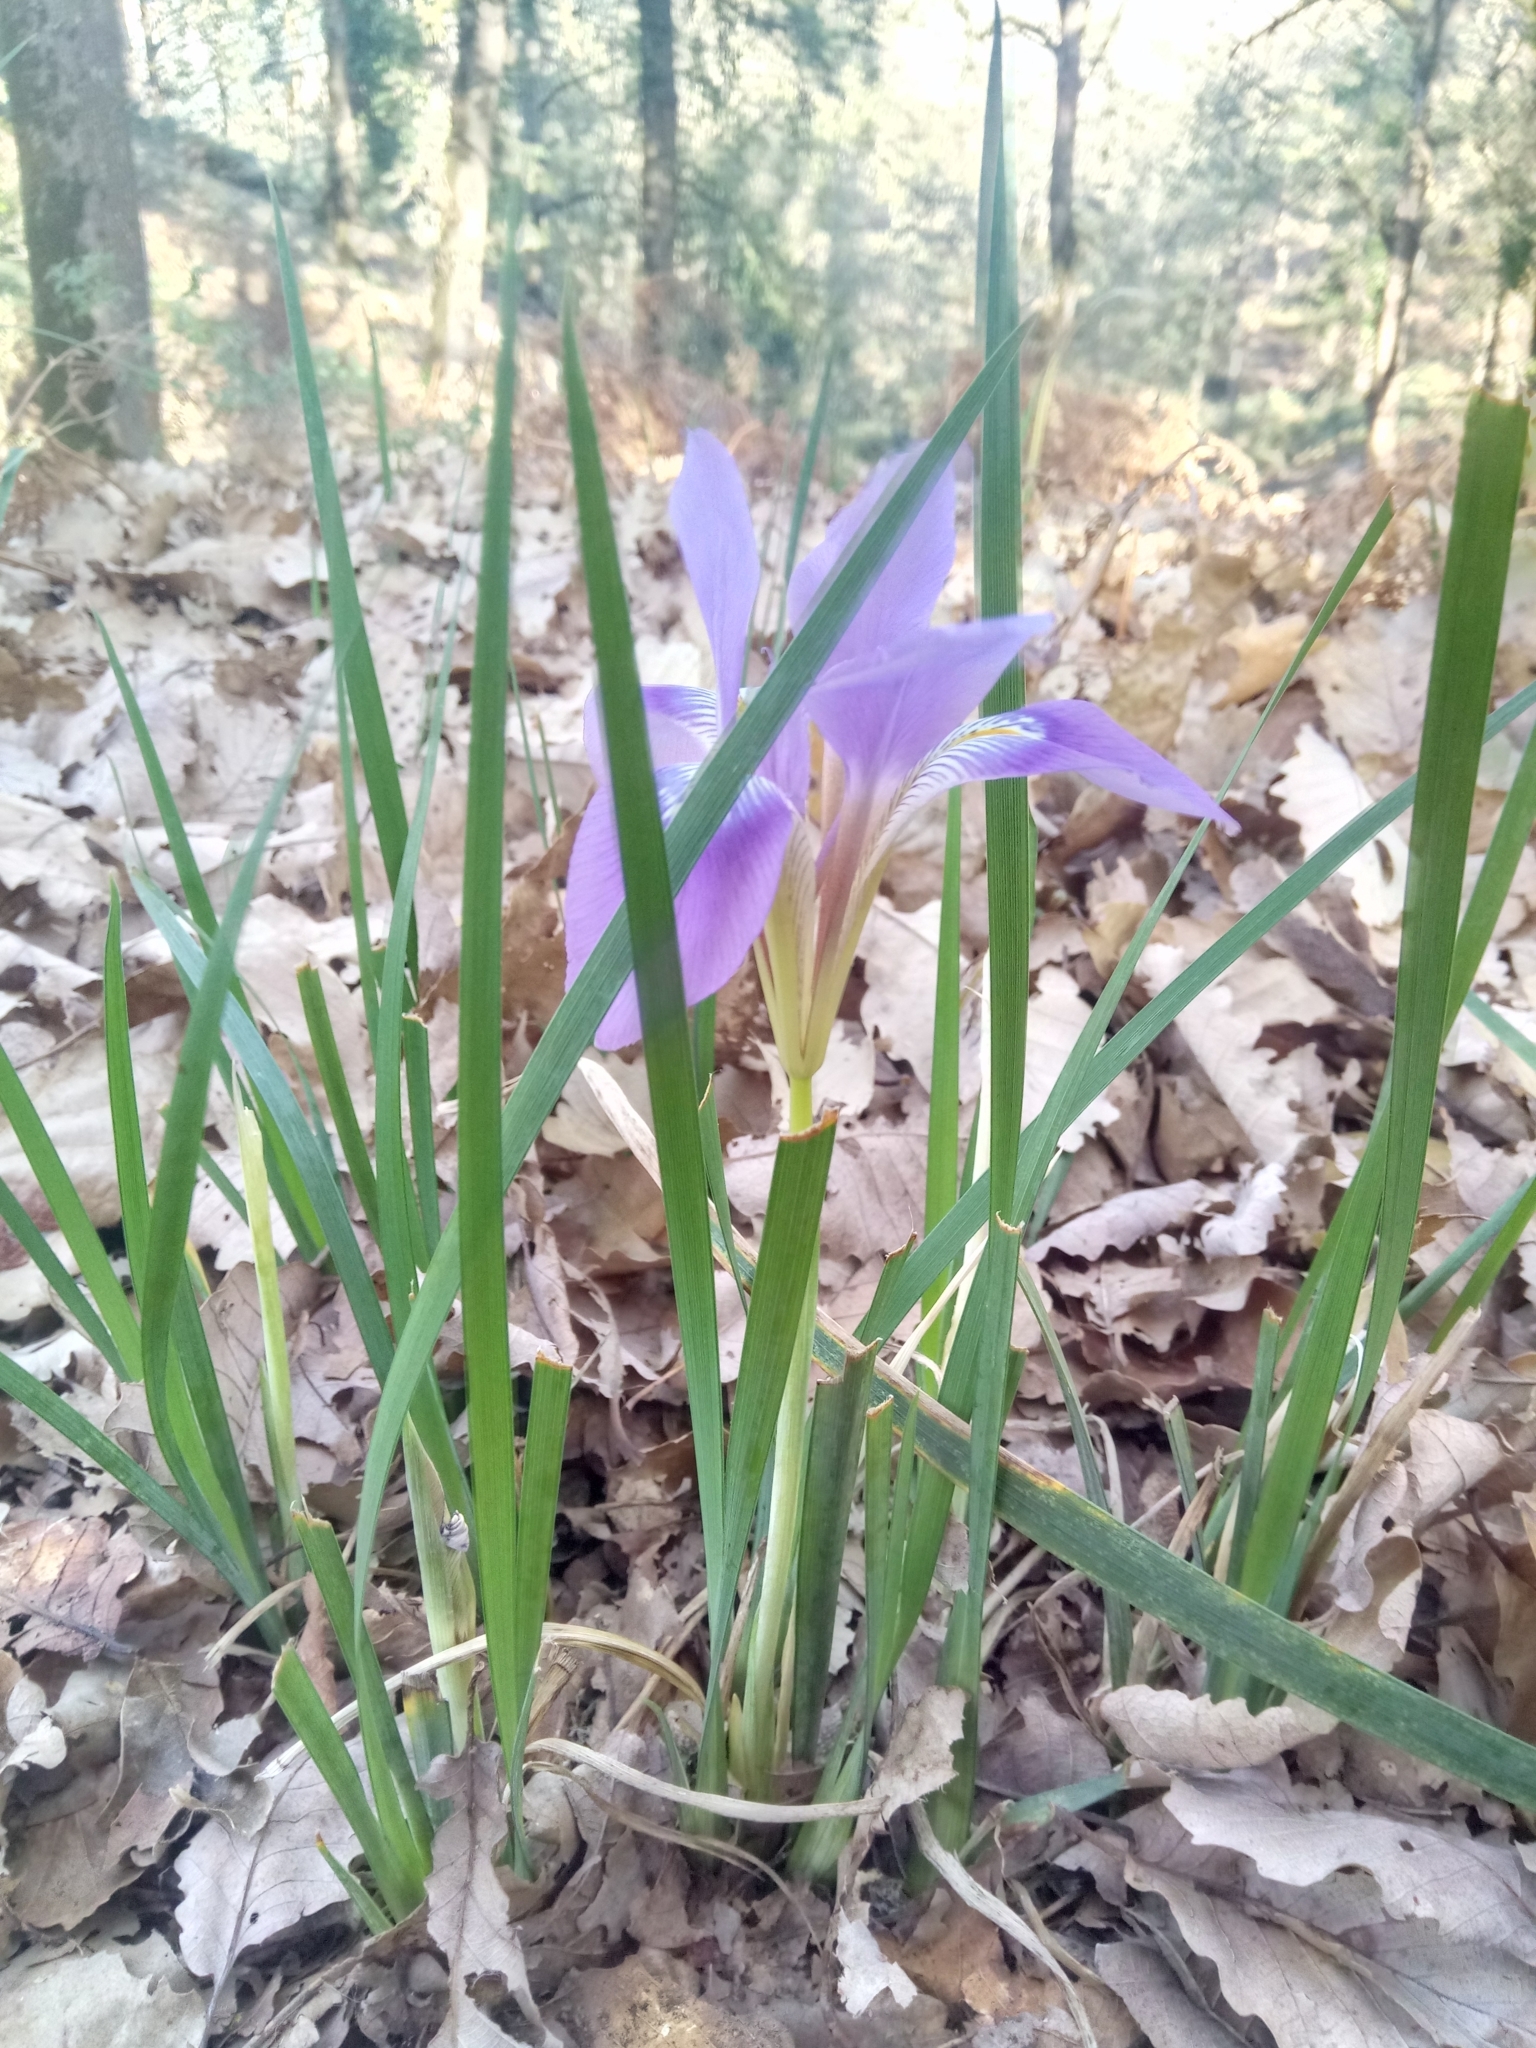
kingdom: Plantae
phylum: Tracheophyta
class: Liliopsida
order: Asparagales
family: Iridaceae
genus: Iris
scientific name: Iris unguicularis
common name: Algerian iris
